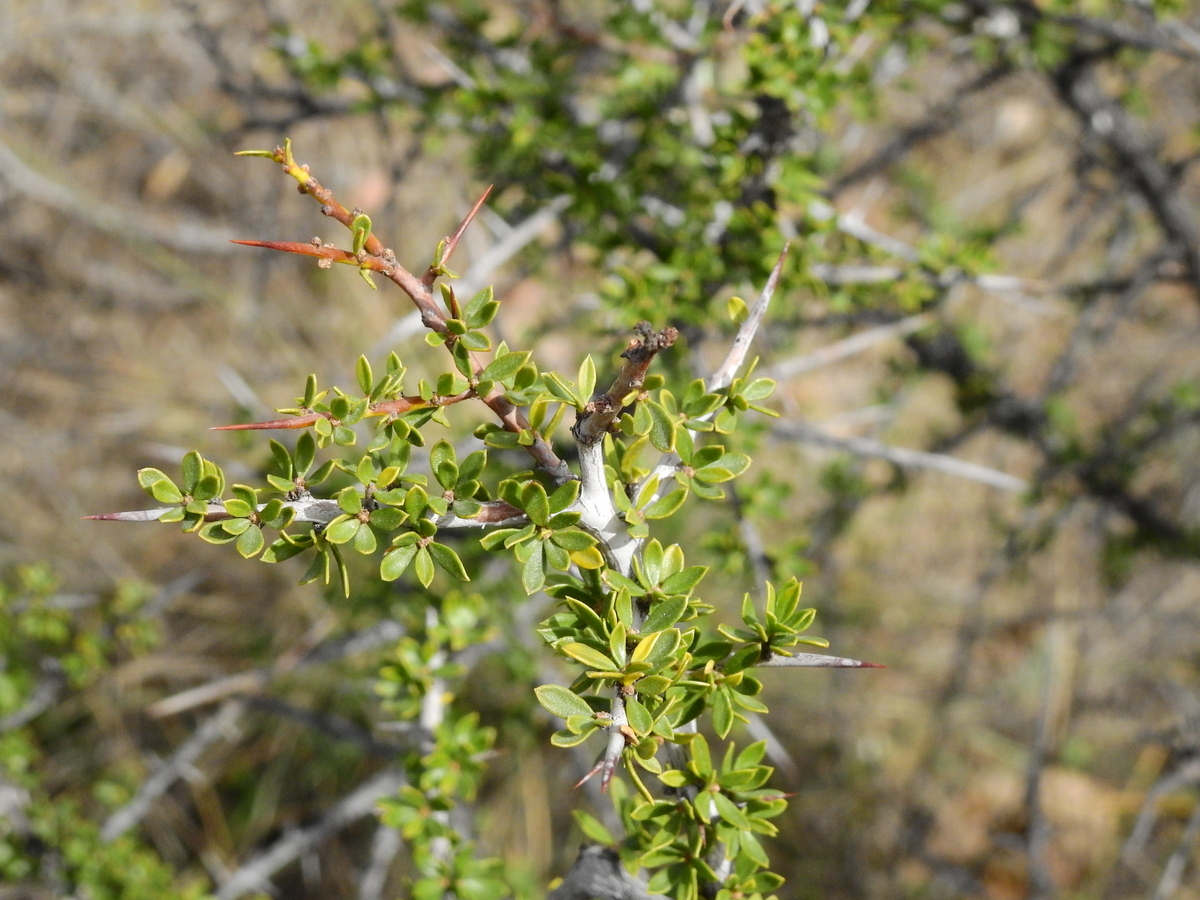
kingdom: Plantae
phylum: Tracheophyta
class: Magnoliopsida
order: Rosales
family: Rhamnaceae
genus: Condalia
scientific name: Condalia microphylla
